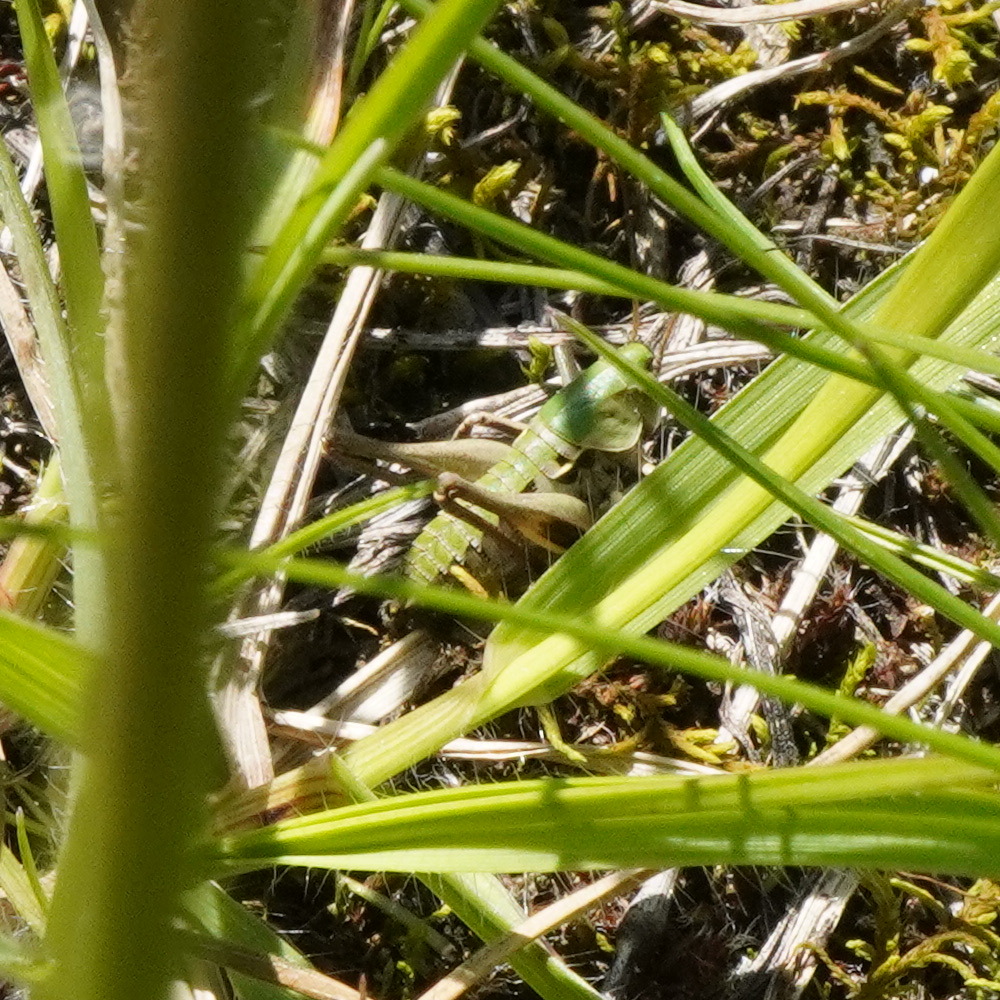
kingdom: Animalia
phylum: Arthropoda
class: Insecta
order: Orthoptera
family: Tettigoniidae
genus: Decticus
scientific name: Decticus verrucivorus
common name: Wart-biter
